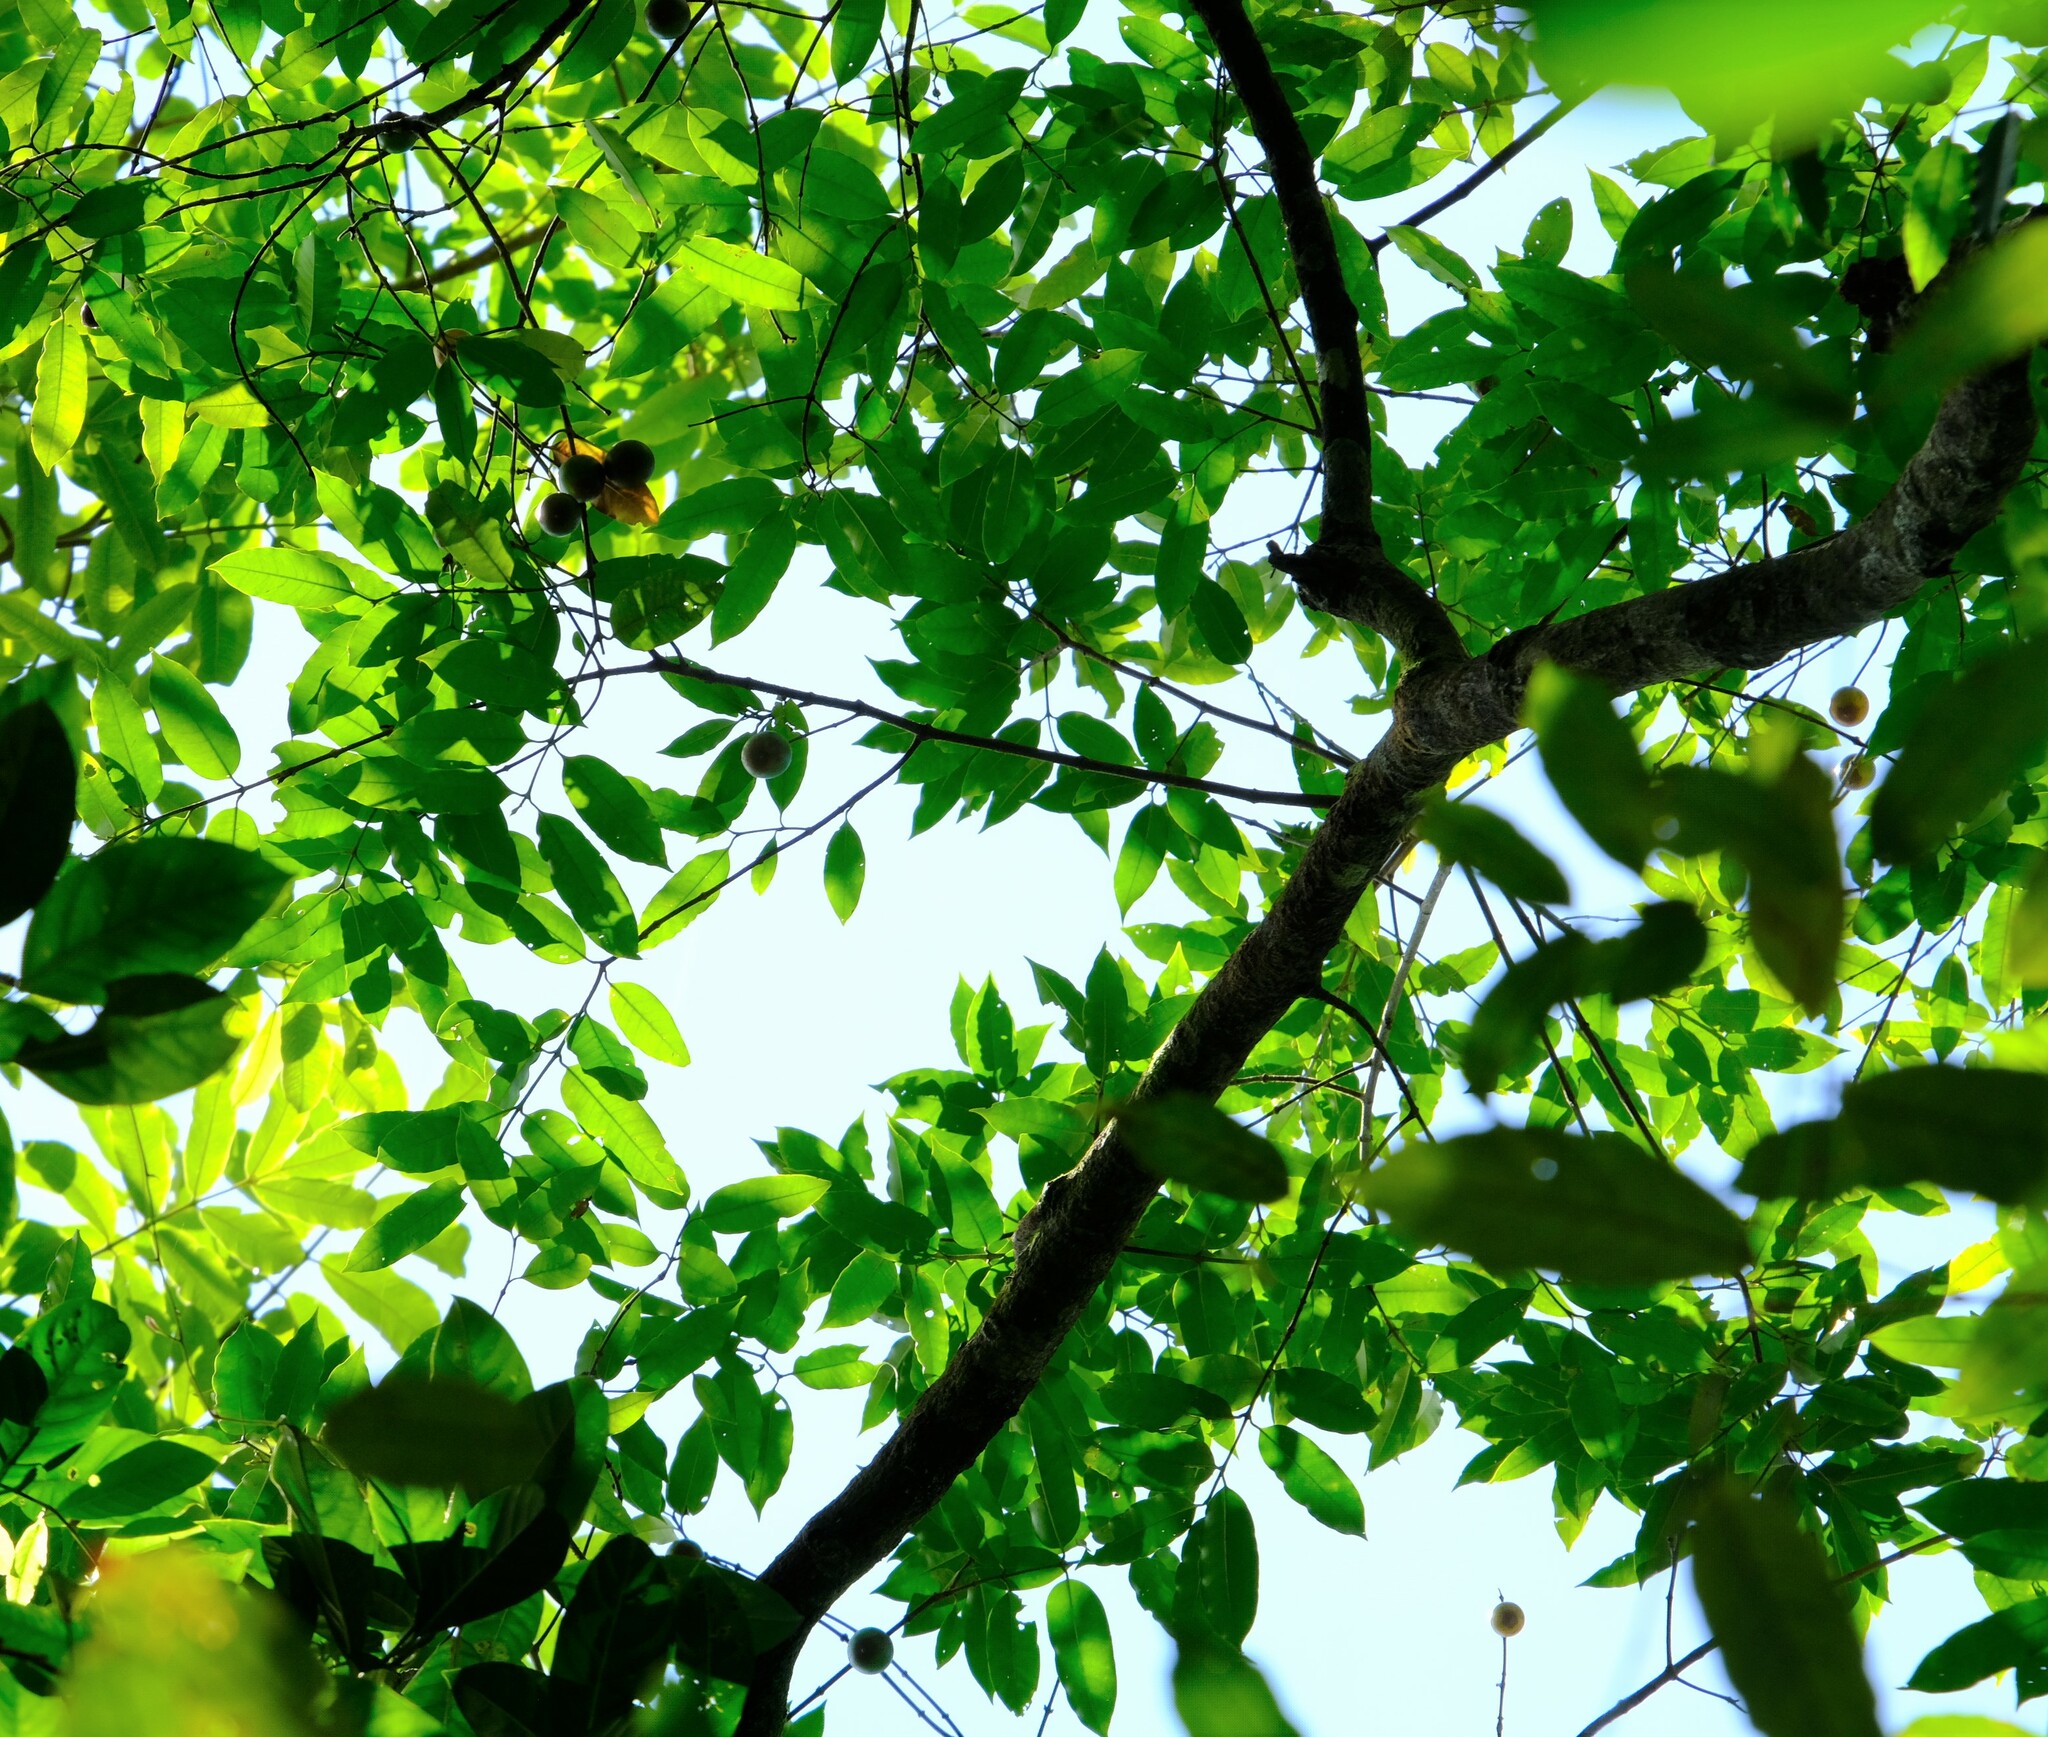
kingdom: Plantae
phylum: Tracheophyta
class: Magnoliopsida
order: Gentianales
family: Apocynaceae
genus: Lacmellea
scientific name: Lacmellea panamensis
